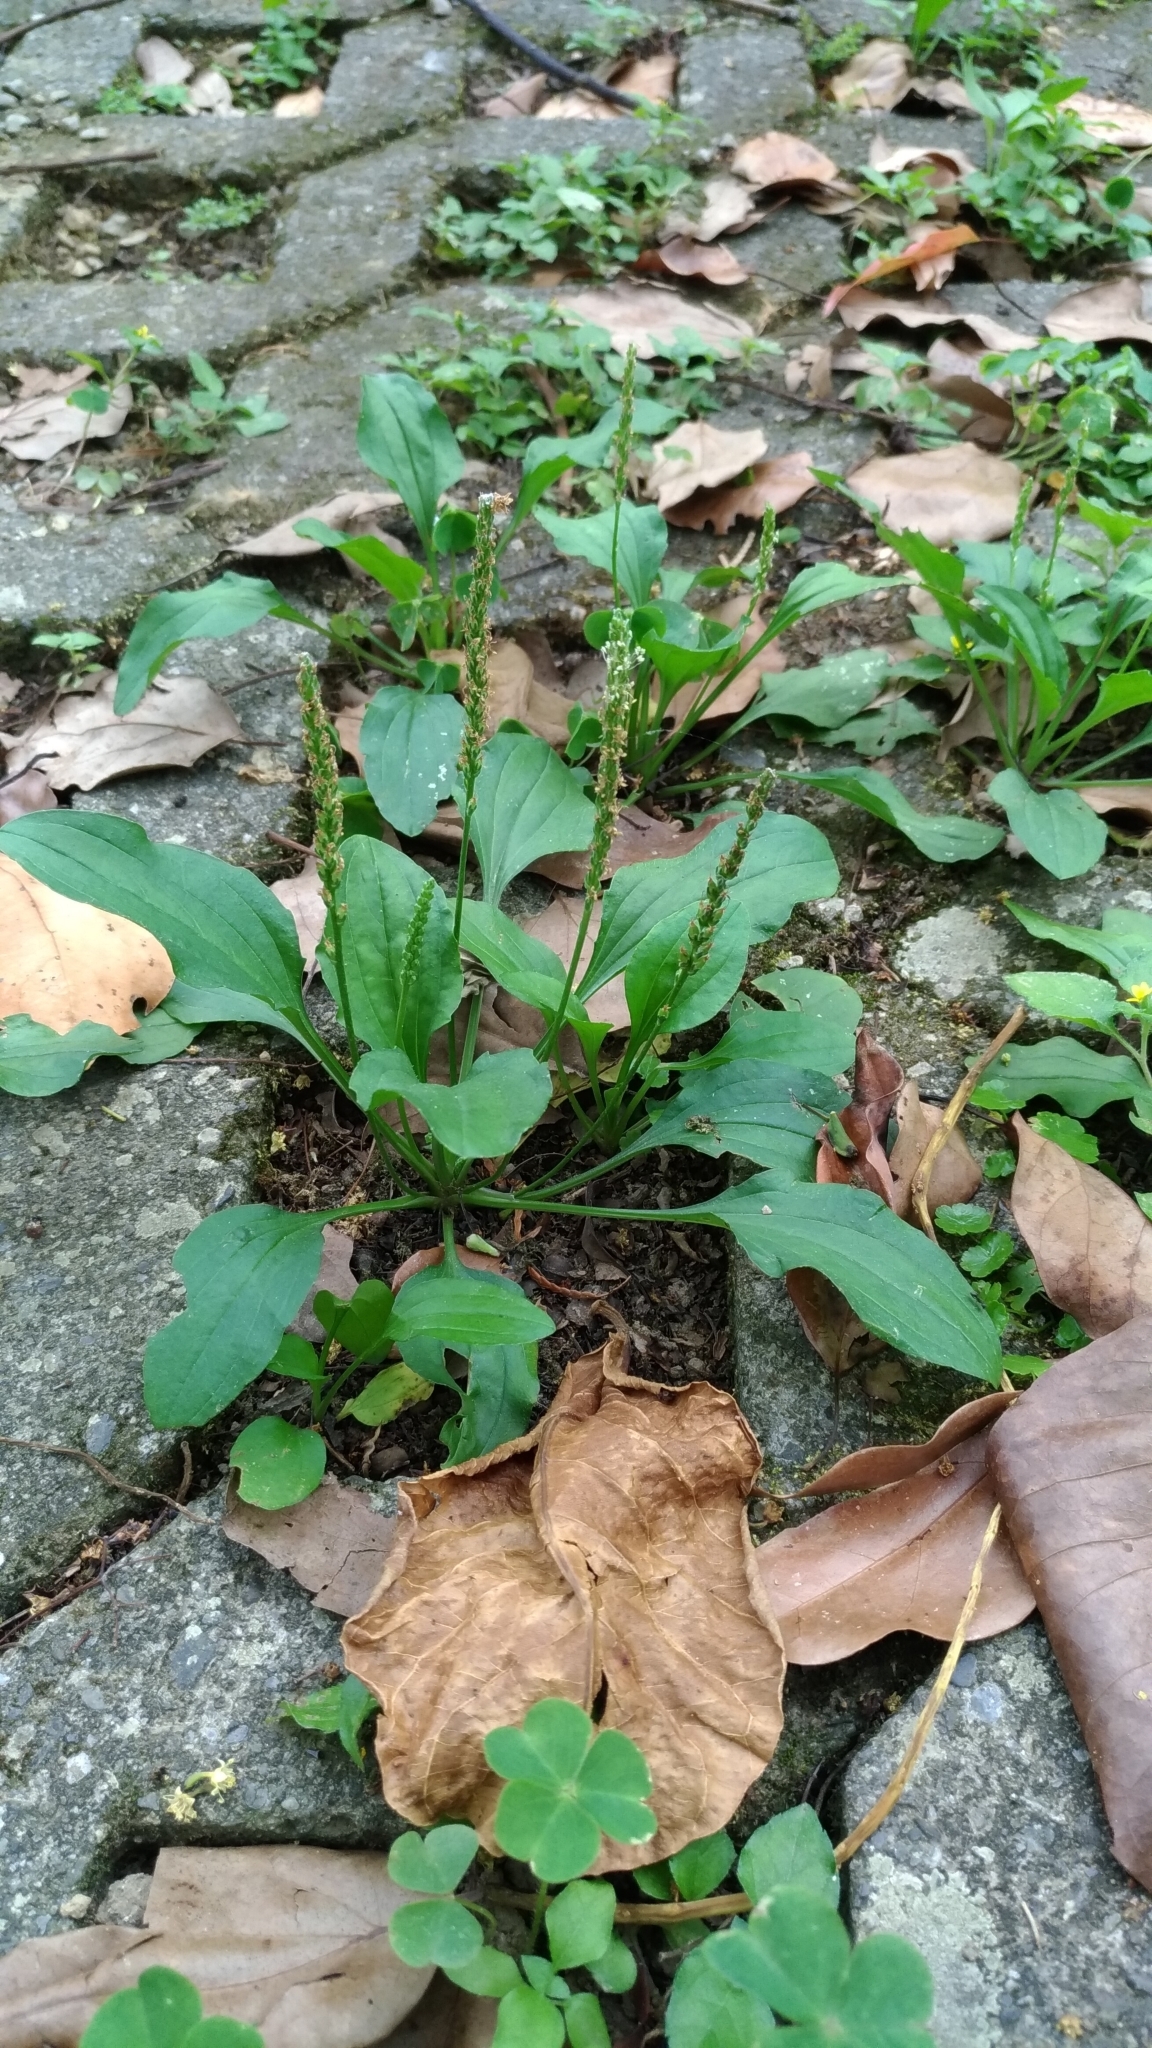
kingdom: Plantae
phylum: Tracheophyta
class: Magnoliopsida
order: Lamiales
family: Plantaginaceae
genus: Plantago
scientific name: Plantago asiatica
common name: Psyllium
